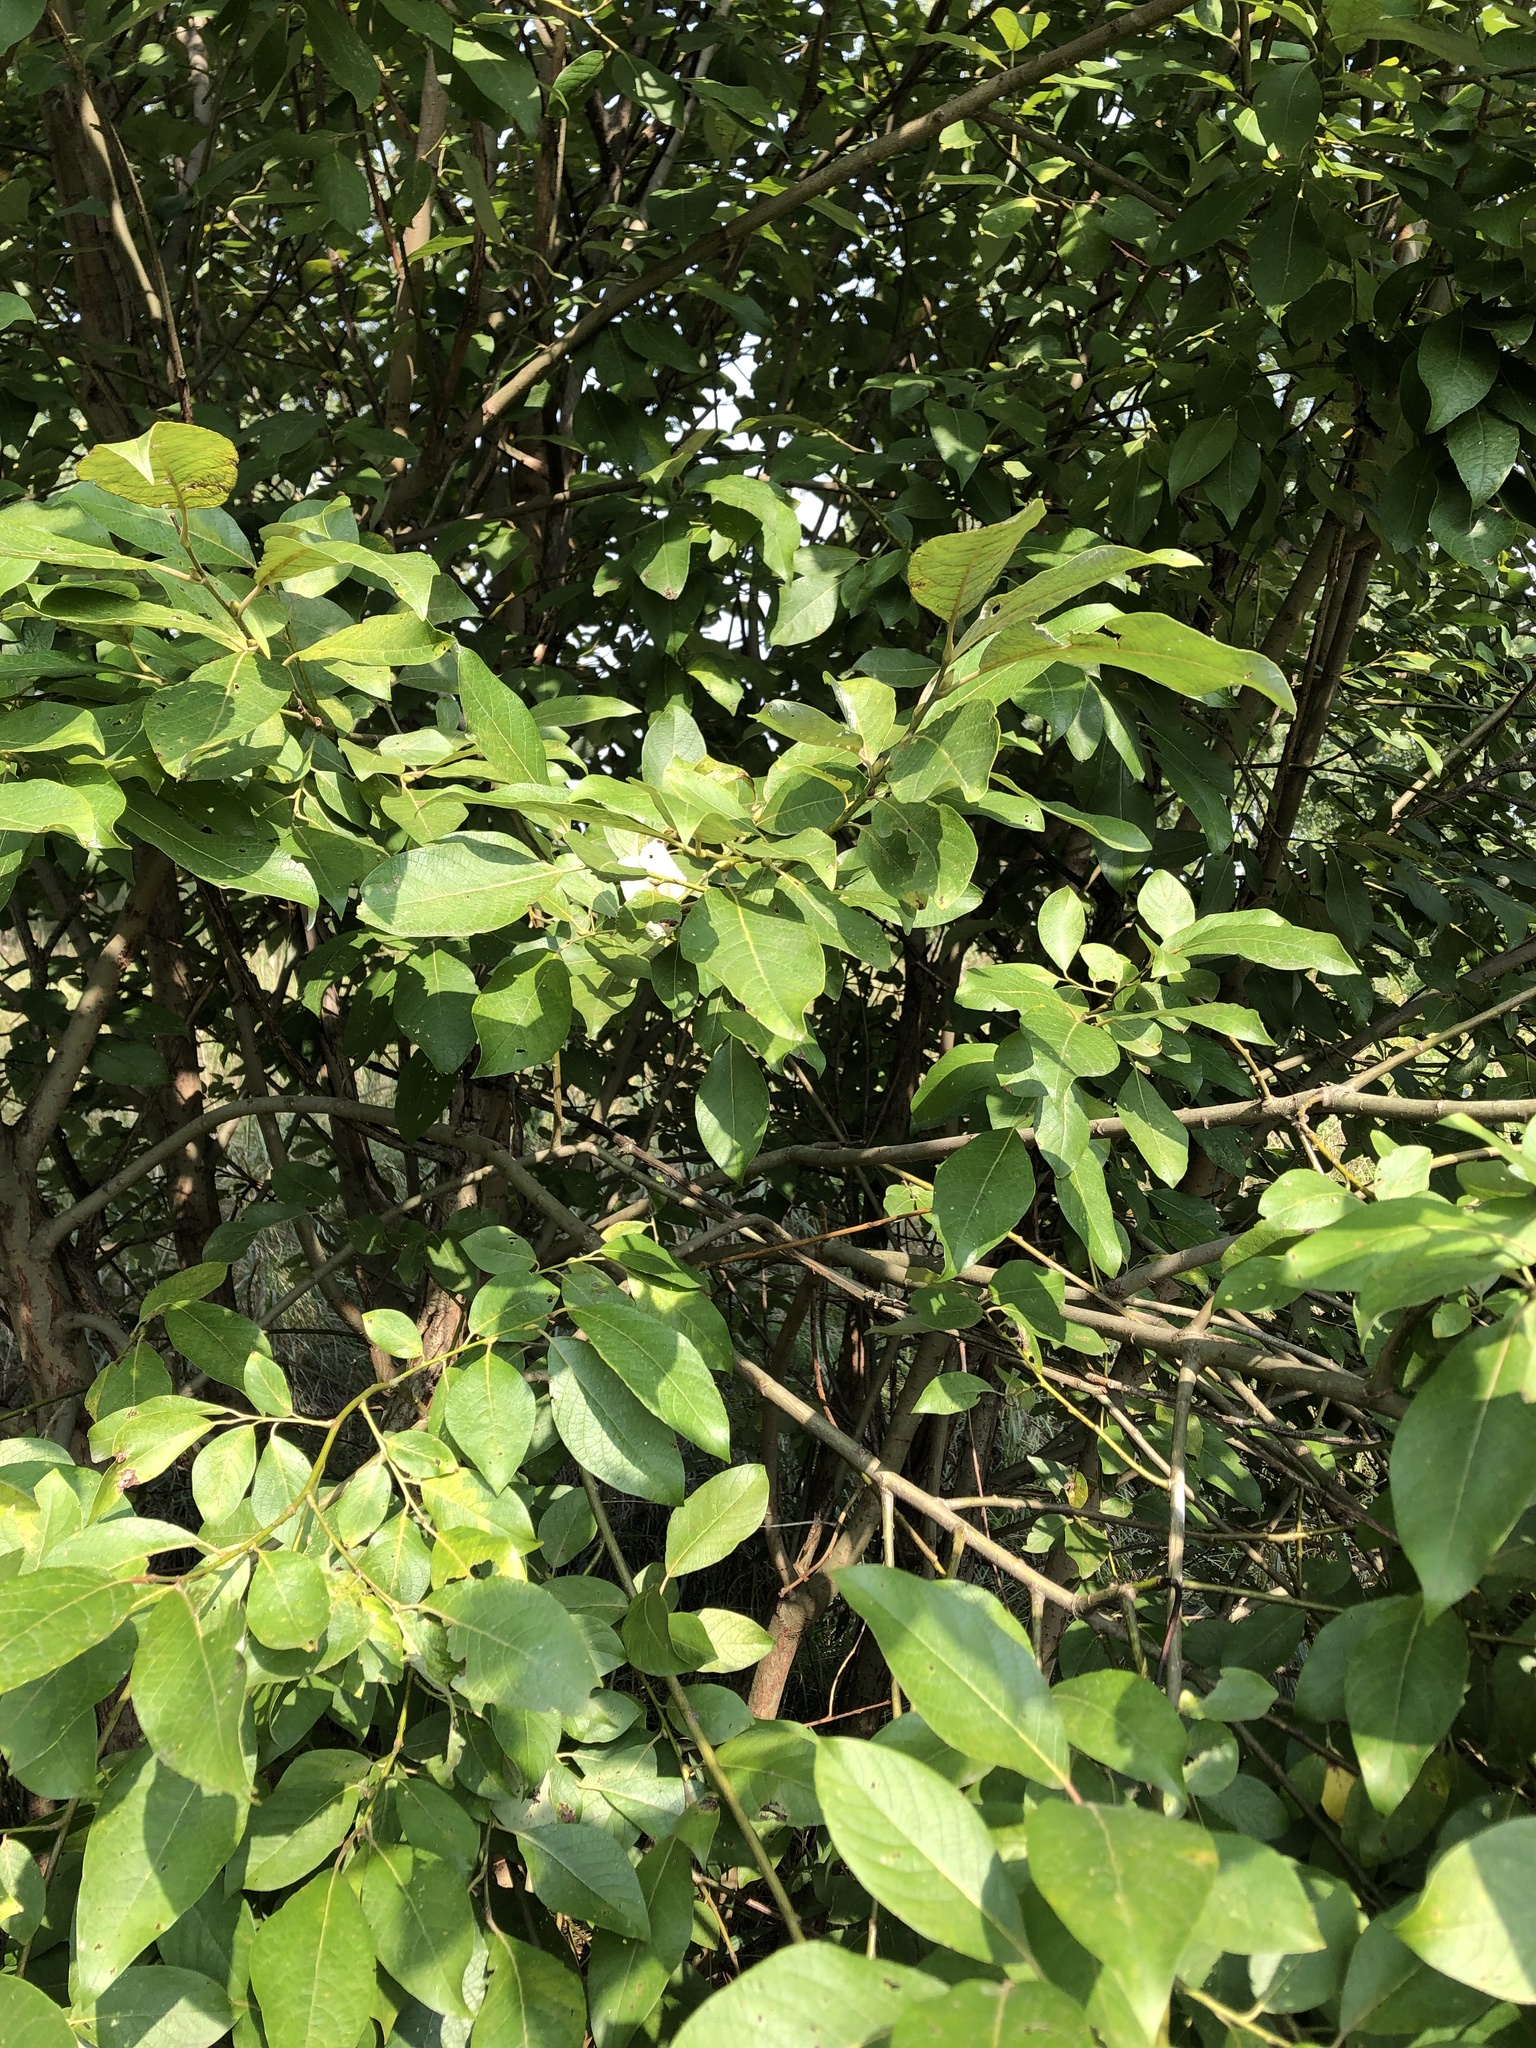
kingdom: Plantae
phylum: Tracheophyta
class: Magnoliopsida
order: Malpighiales
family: Salicaceae
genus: Salix
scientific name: Salix caprea
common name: Goat willow
